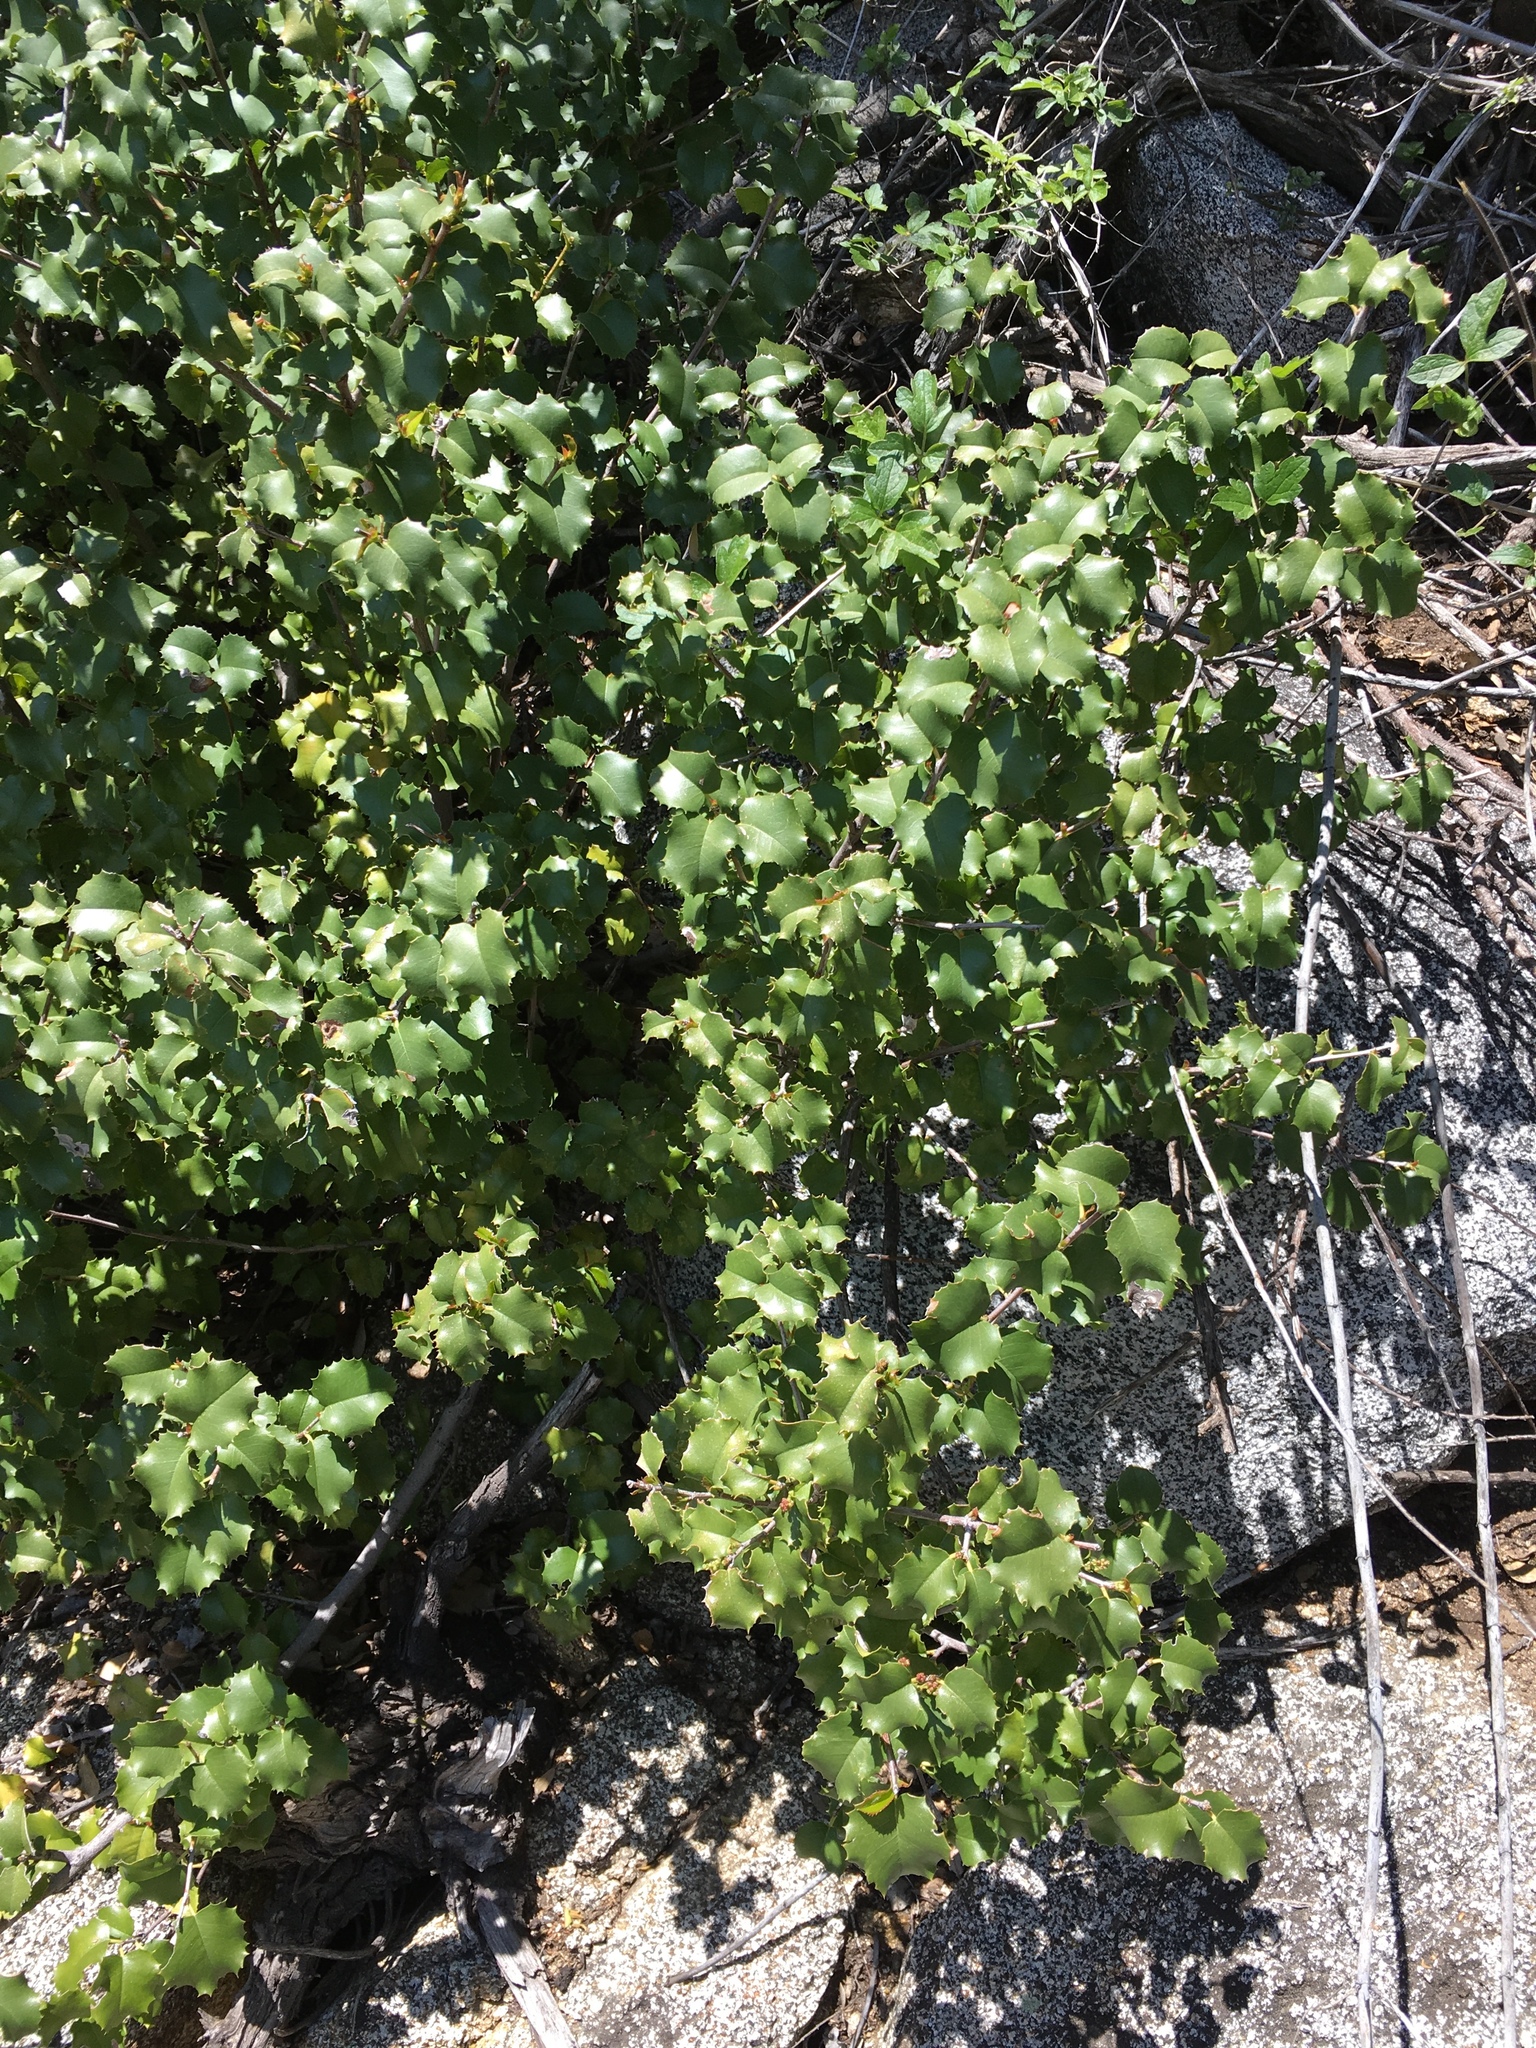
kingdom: Plantae
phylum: Tracheophyta
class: Magnoliopsida
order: Rosales
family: Rosaceae
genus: Prunus
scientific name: Prunus ilicifolia
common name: Hollyleaf cherry
